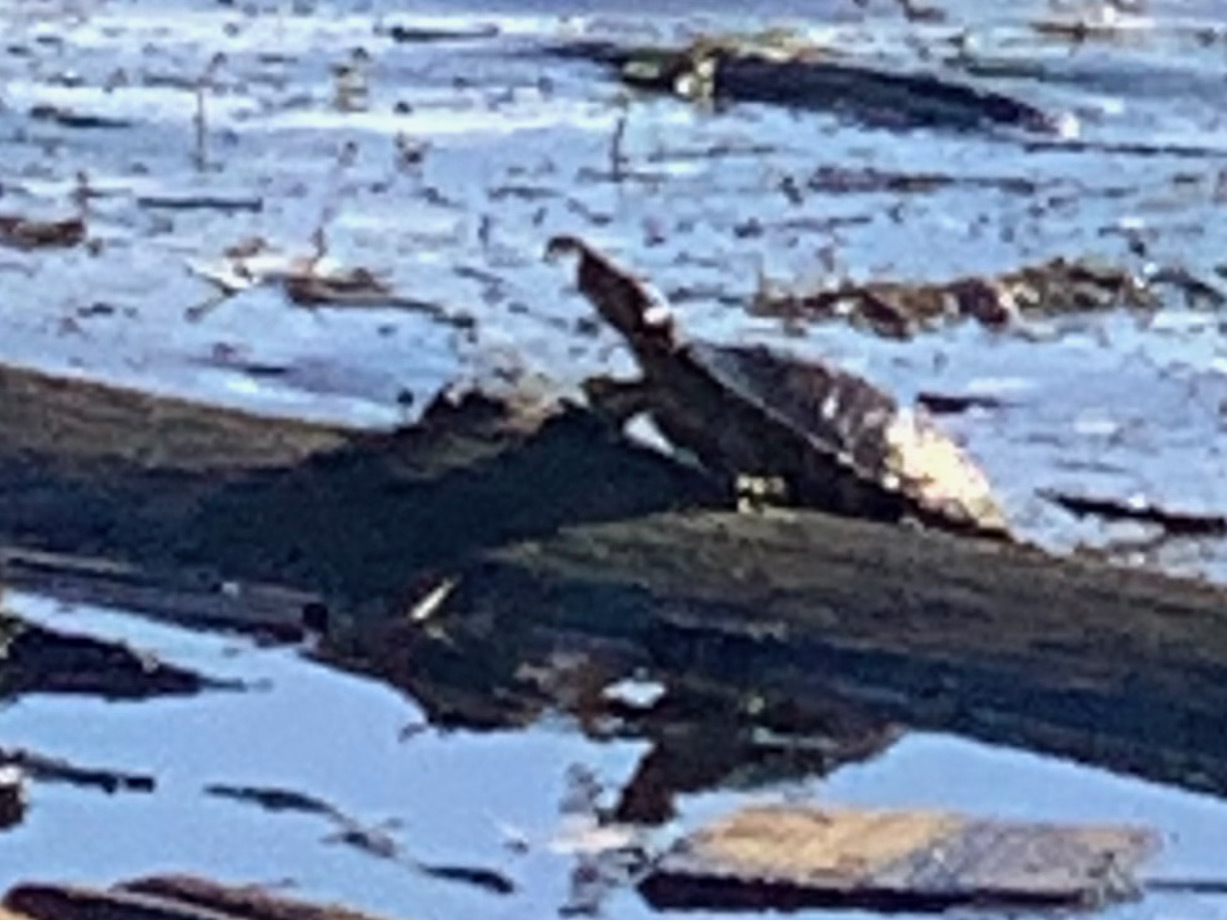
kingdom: Animalia
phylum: Chordata
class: Testudines
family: Emydidae
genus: Trachemys
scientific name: Trachemys scripta
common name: Slider
